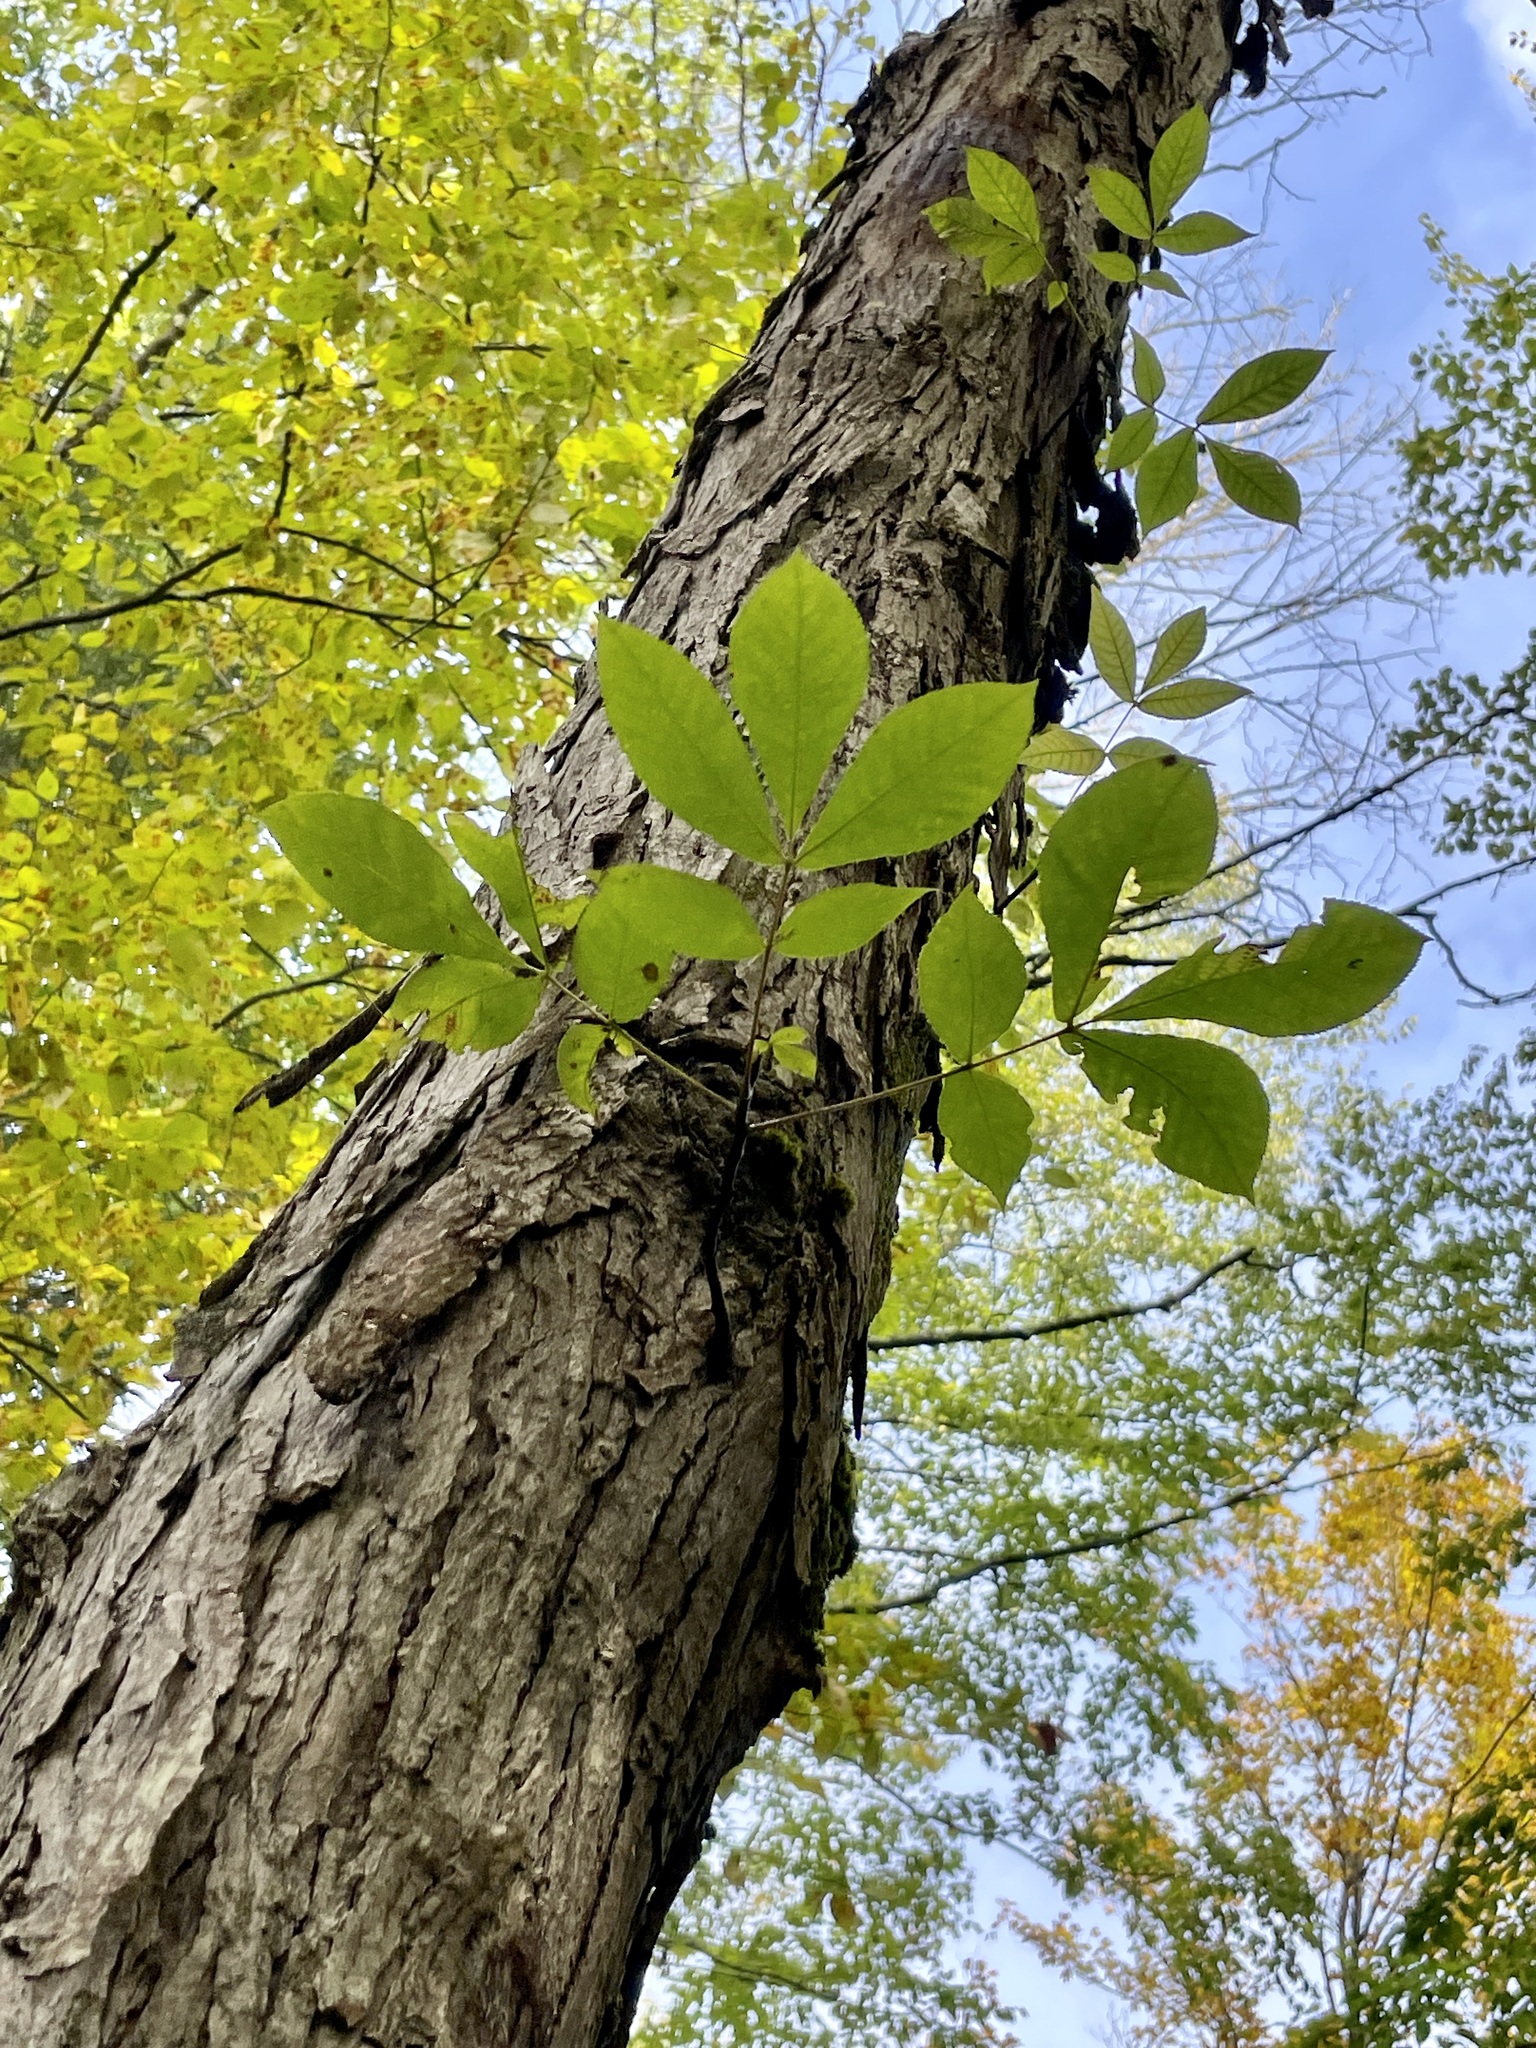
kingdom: Plantae
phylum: Tracheophyta
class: Magnoliopsida
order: Fagales
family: Juglandaceae
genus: Carya
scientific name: Carya ovata
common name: Shagbark hickory
